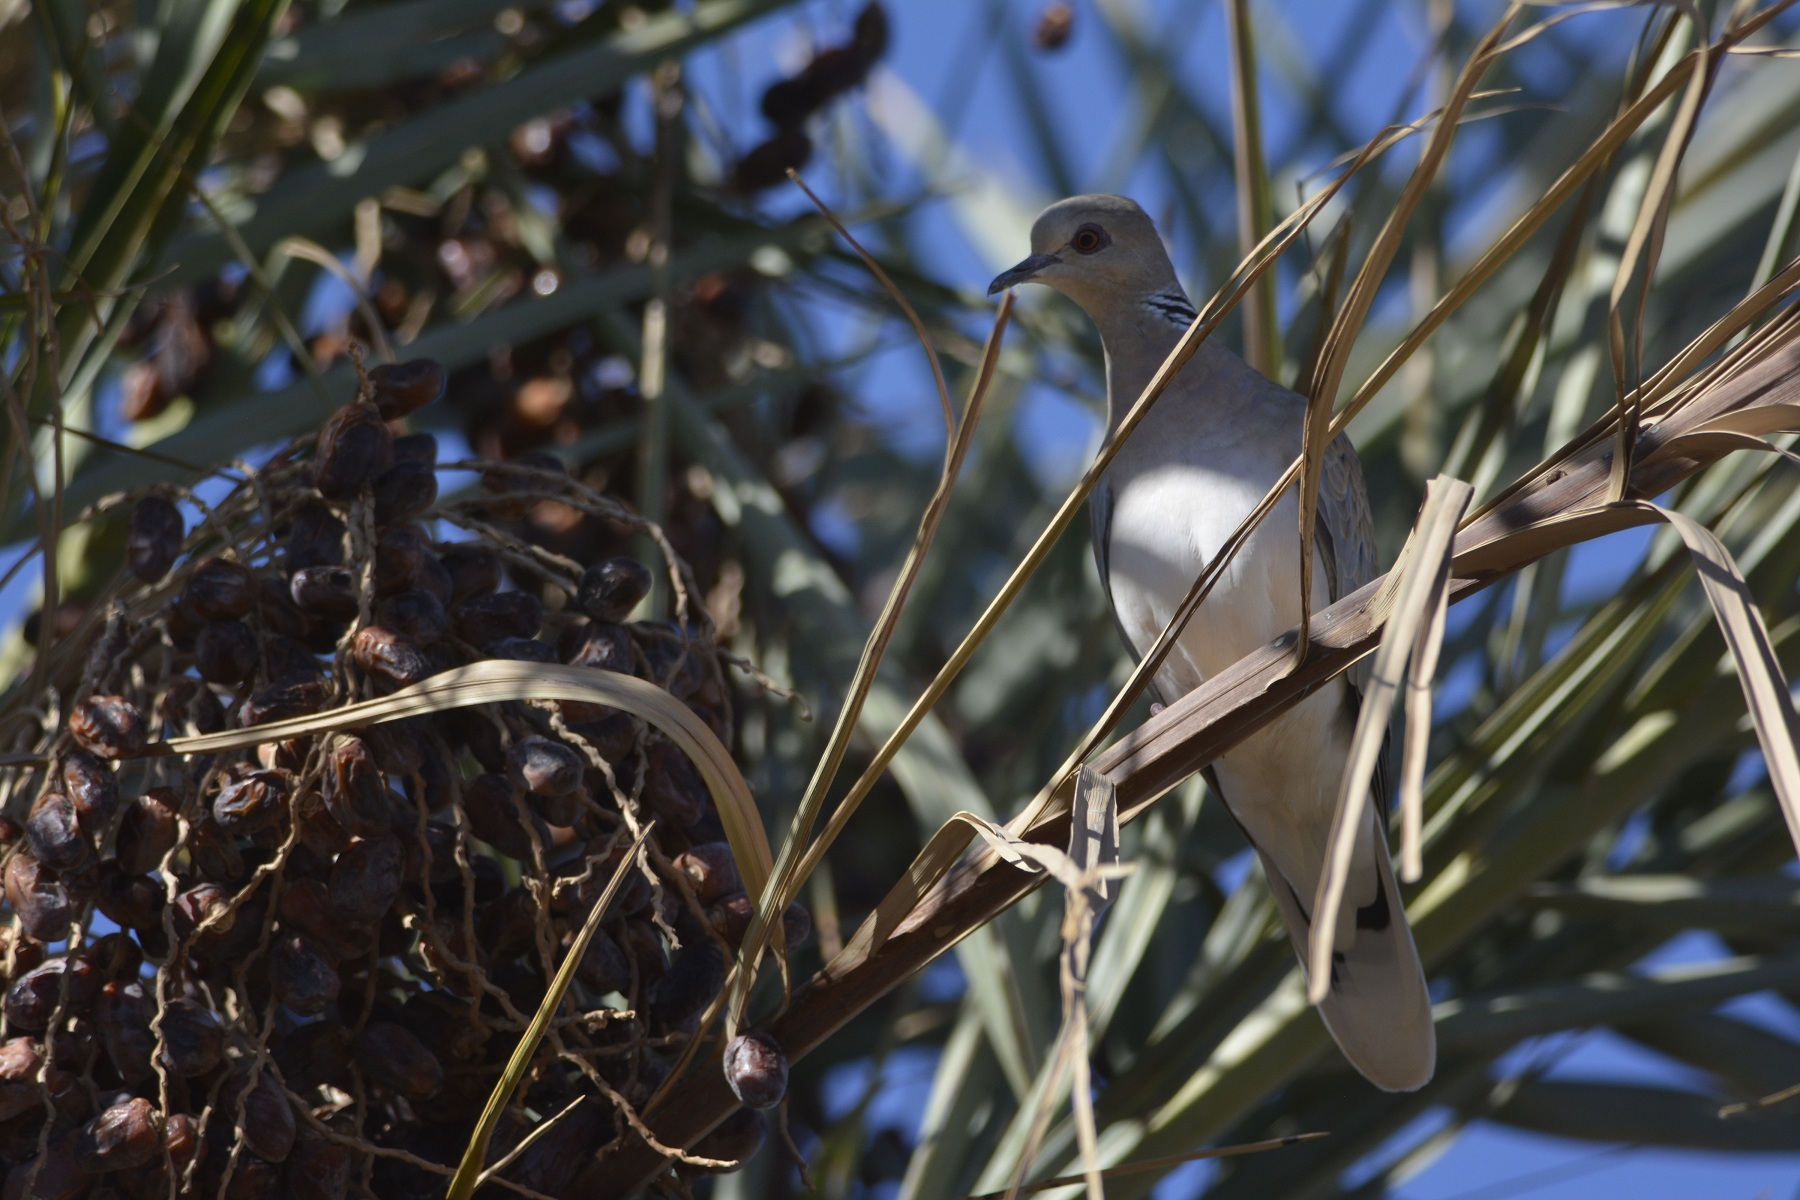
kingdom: Animalia
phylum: Chordata
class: Aves
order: Columbiformes
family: Columbidae
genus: Streptopelia
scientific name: Streptopelia turtur
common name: European turtle dove
